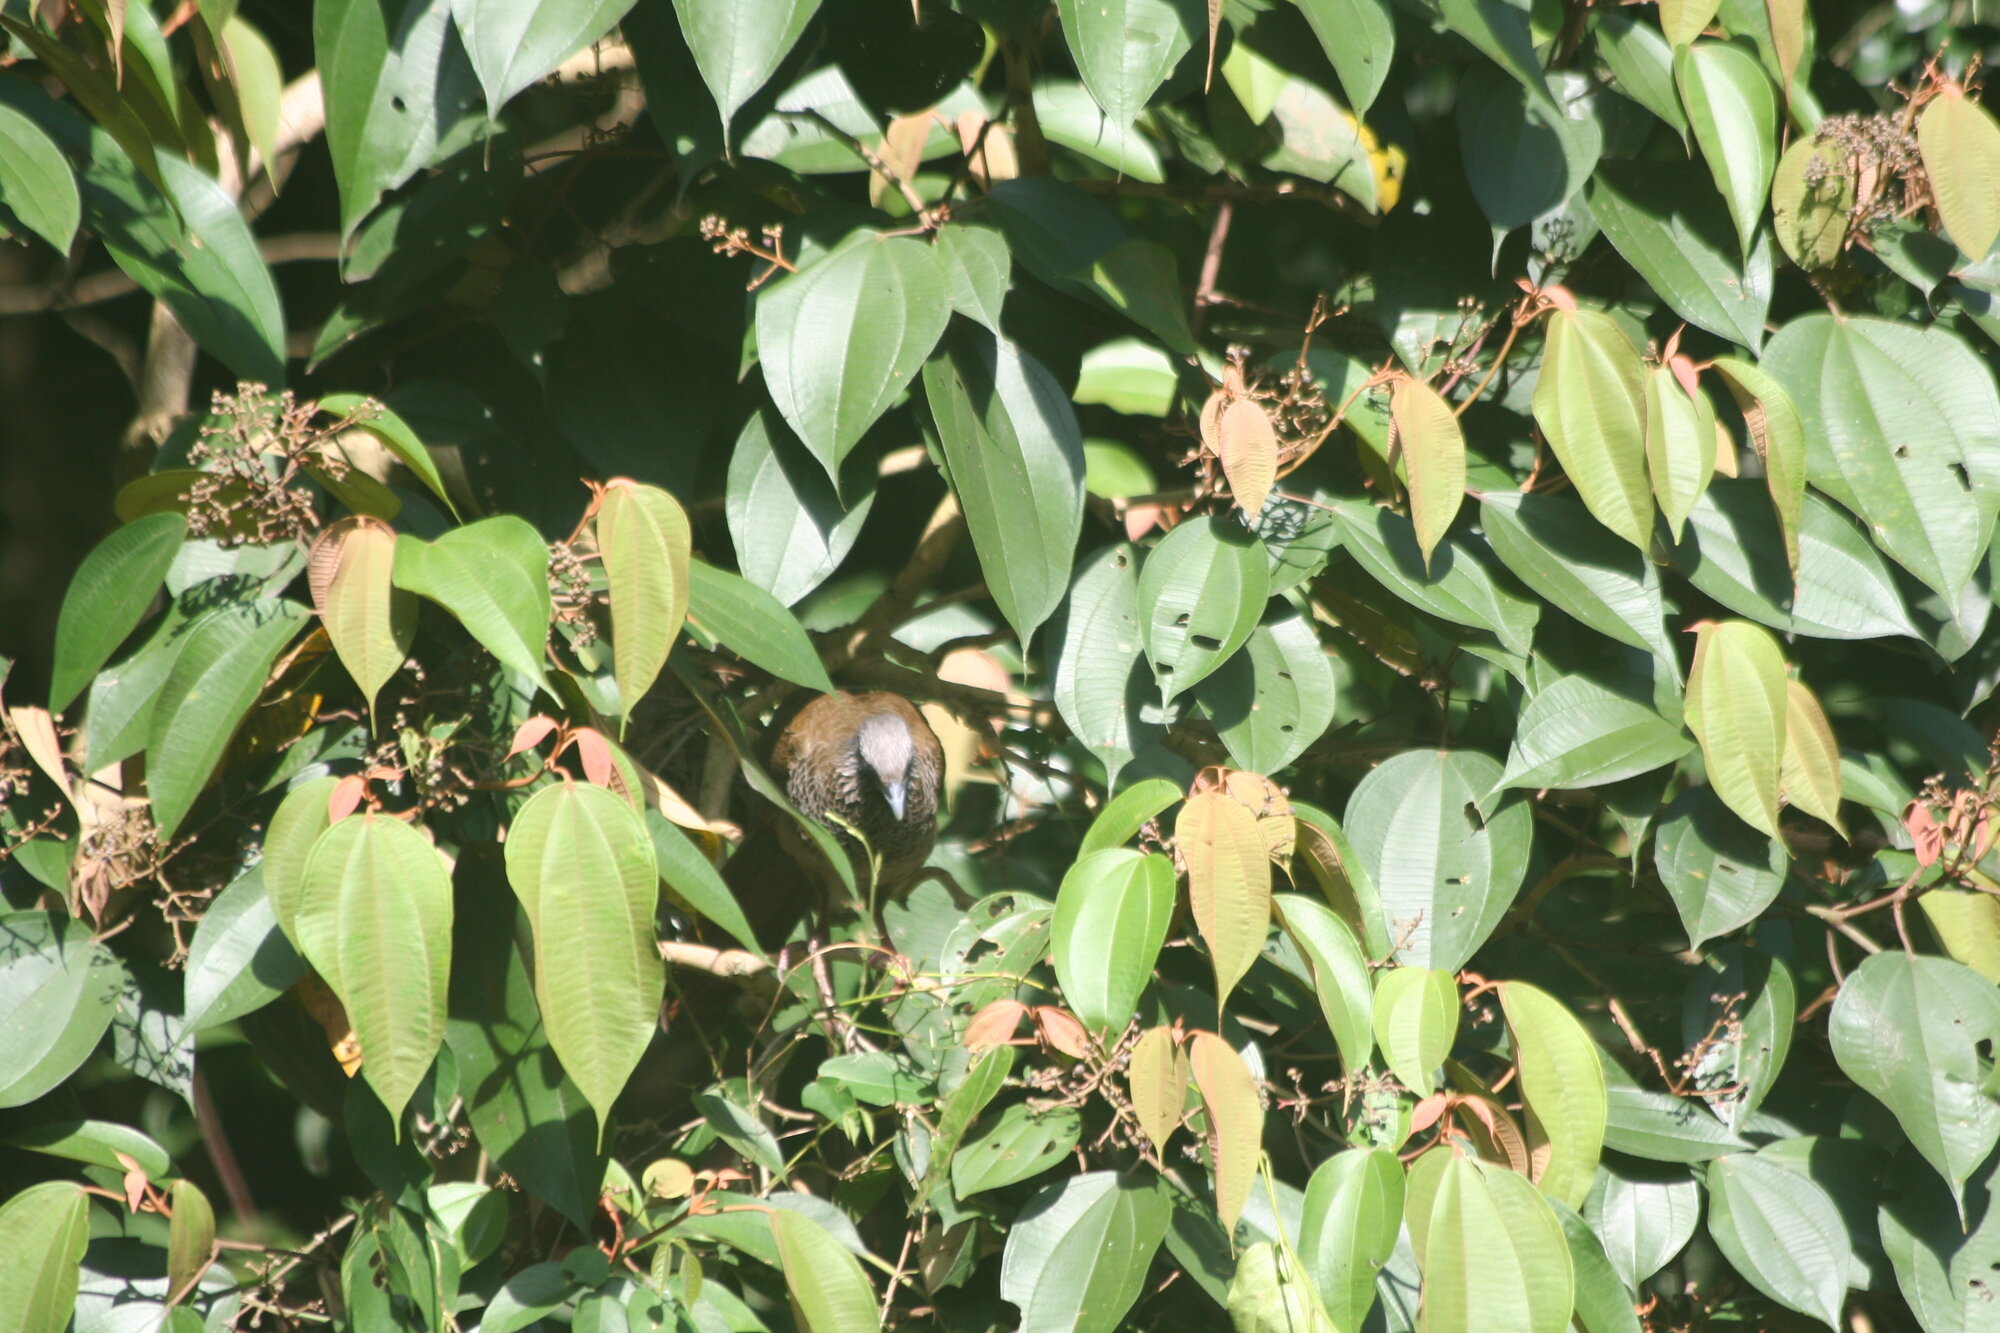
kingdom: Animalia
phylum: Chordata
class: Aves
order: Galliformes
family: Cracidae
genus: Ortalis
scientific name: Ortalis columbiana
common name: Colombian chachalaca
